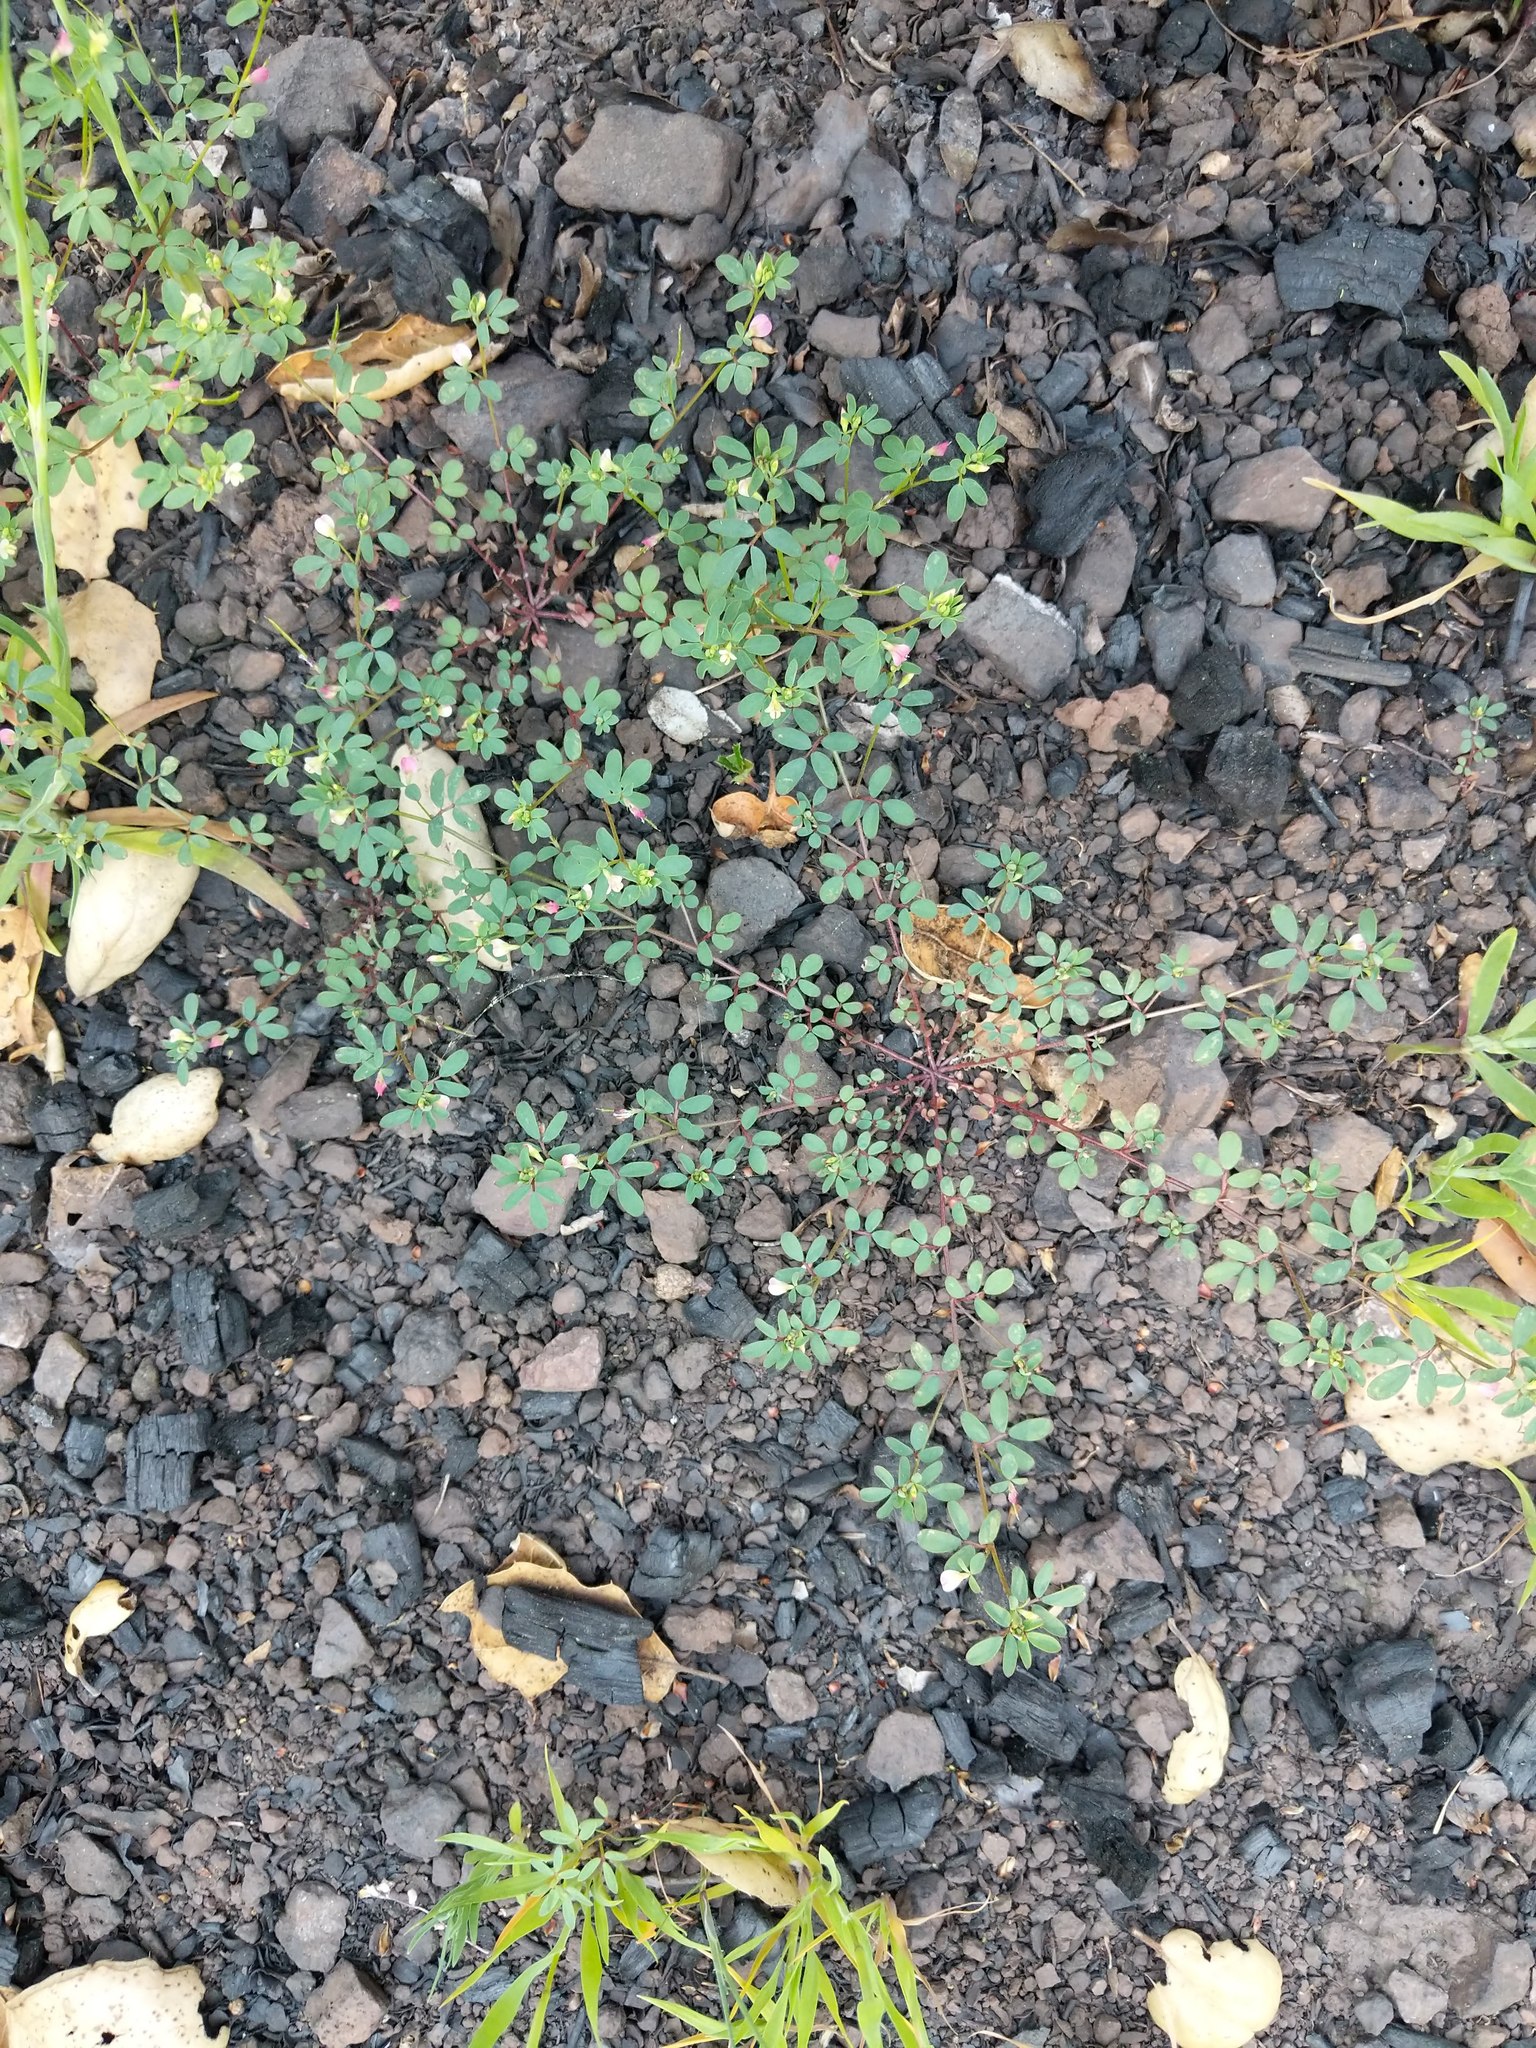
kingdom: Plantae
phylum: Tracheophyta
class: Magnoliopsida
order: Fabales
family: Fabaceae
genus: Acmispon
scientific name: Acmispon parviflorus
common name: Desert deer-vetch
